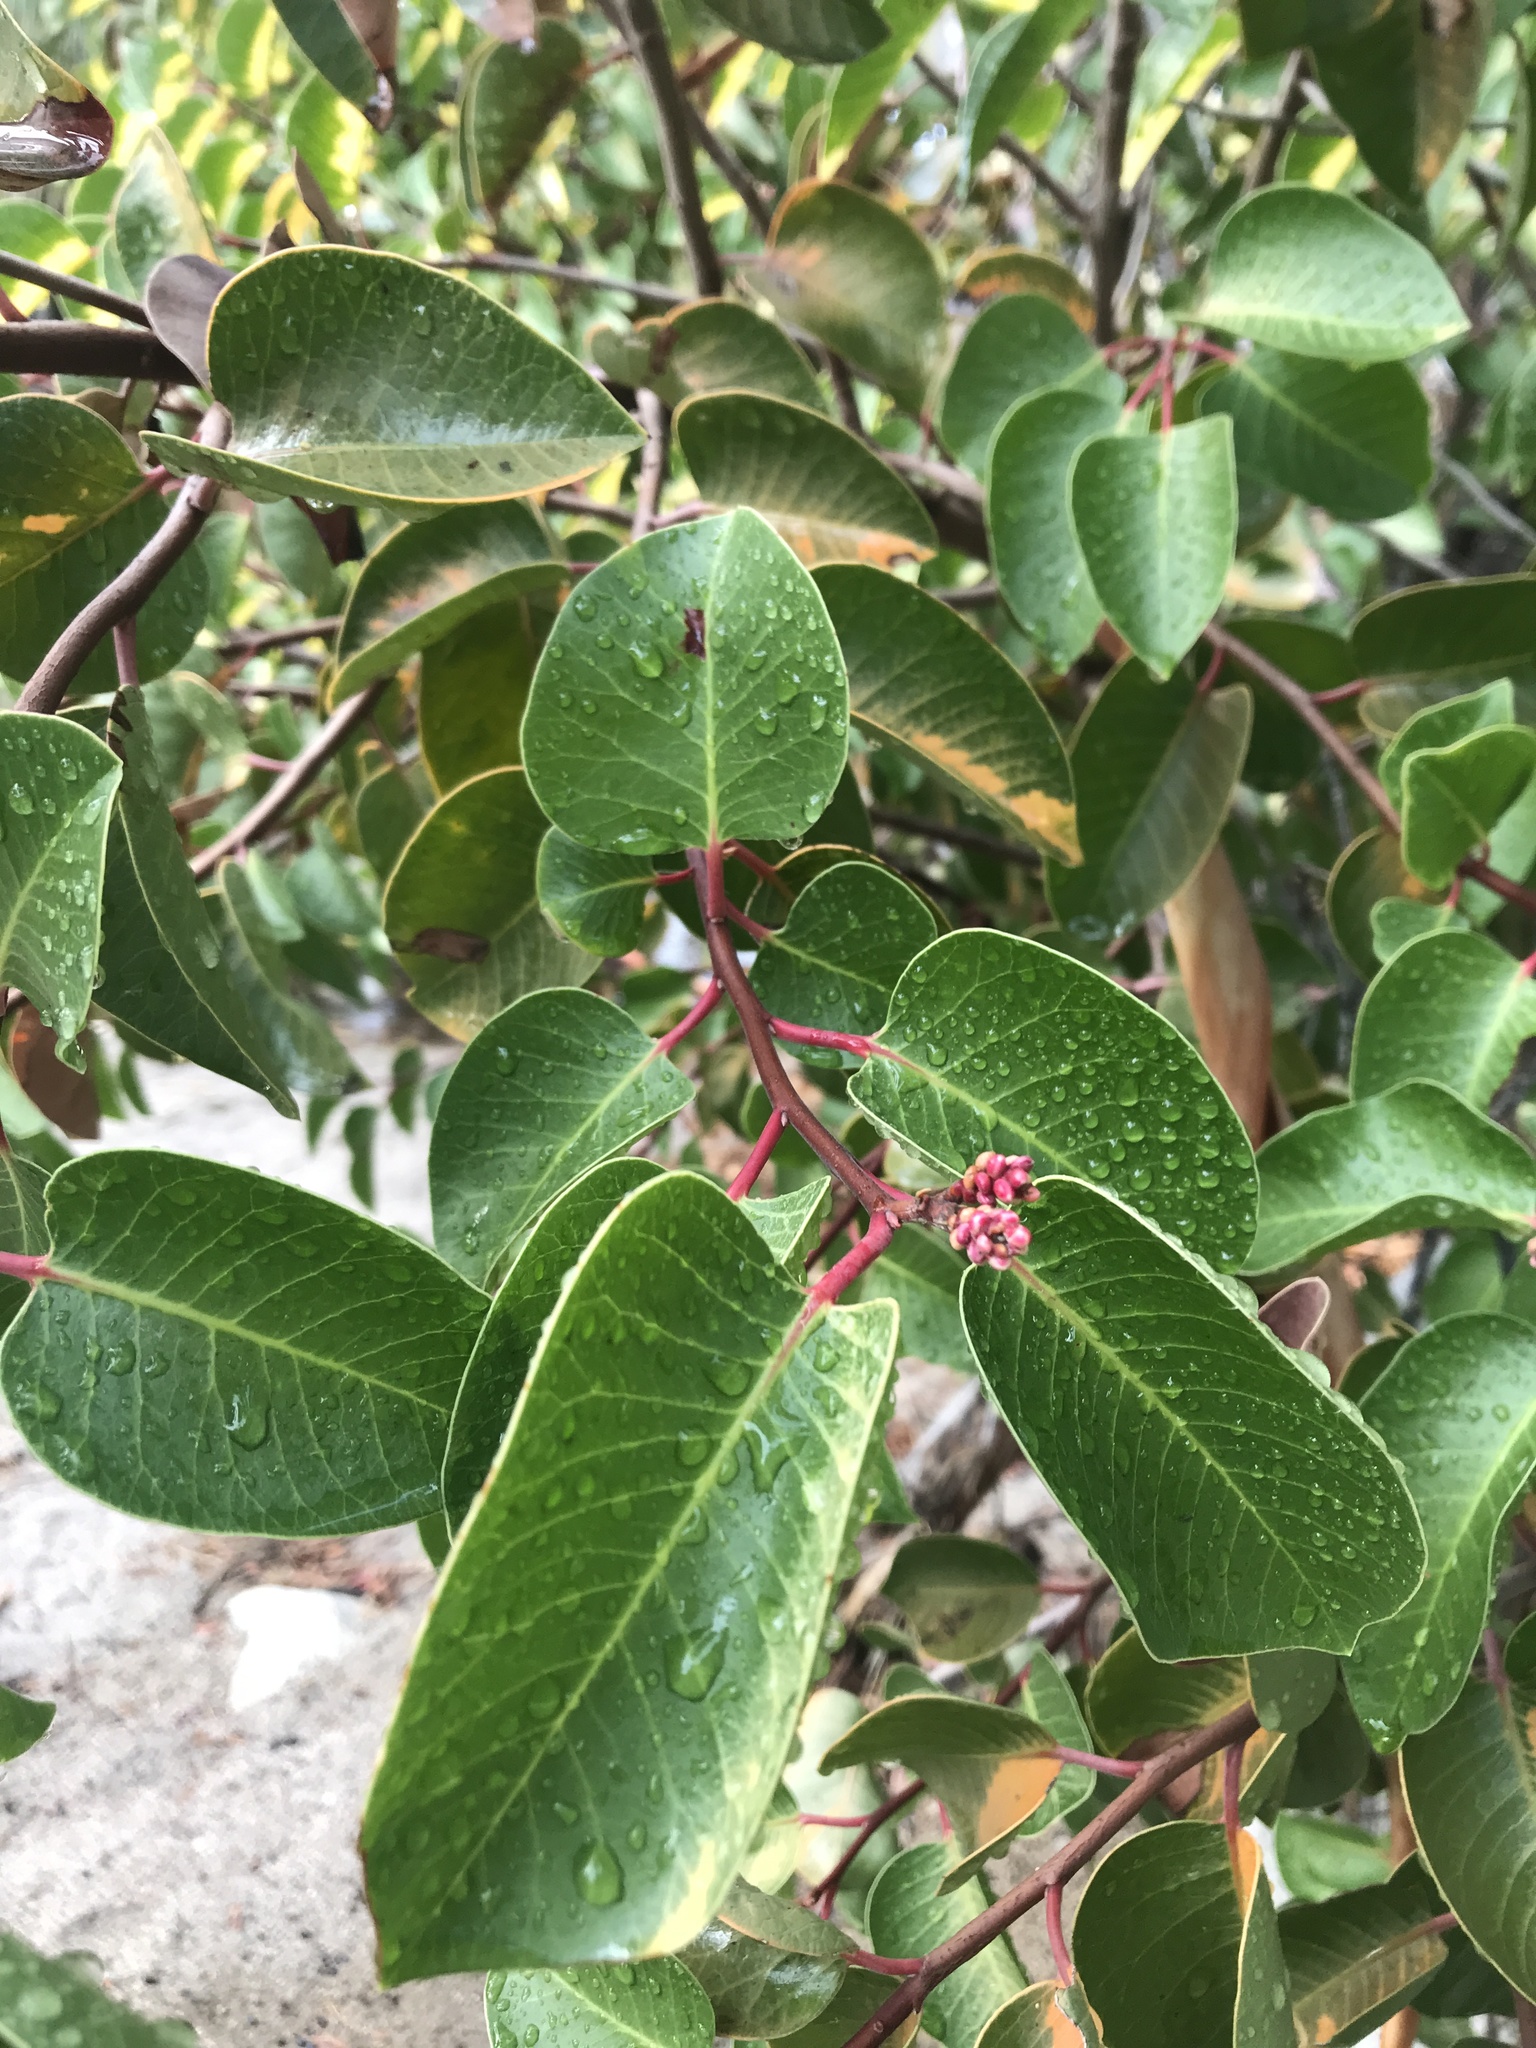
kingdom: Plantae
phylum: Tracheophyta
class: Magnoliopsida
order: Sapindales
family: Anacardiaceae
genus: Rhus
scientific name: Rhus ovata
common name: Sugar sumac
